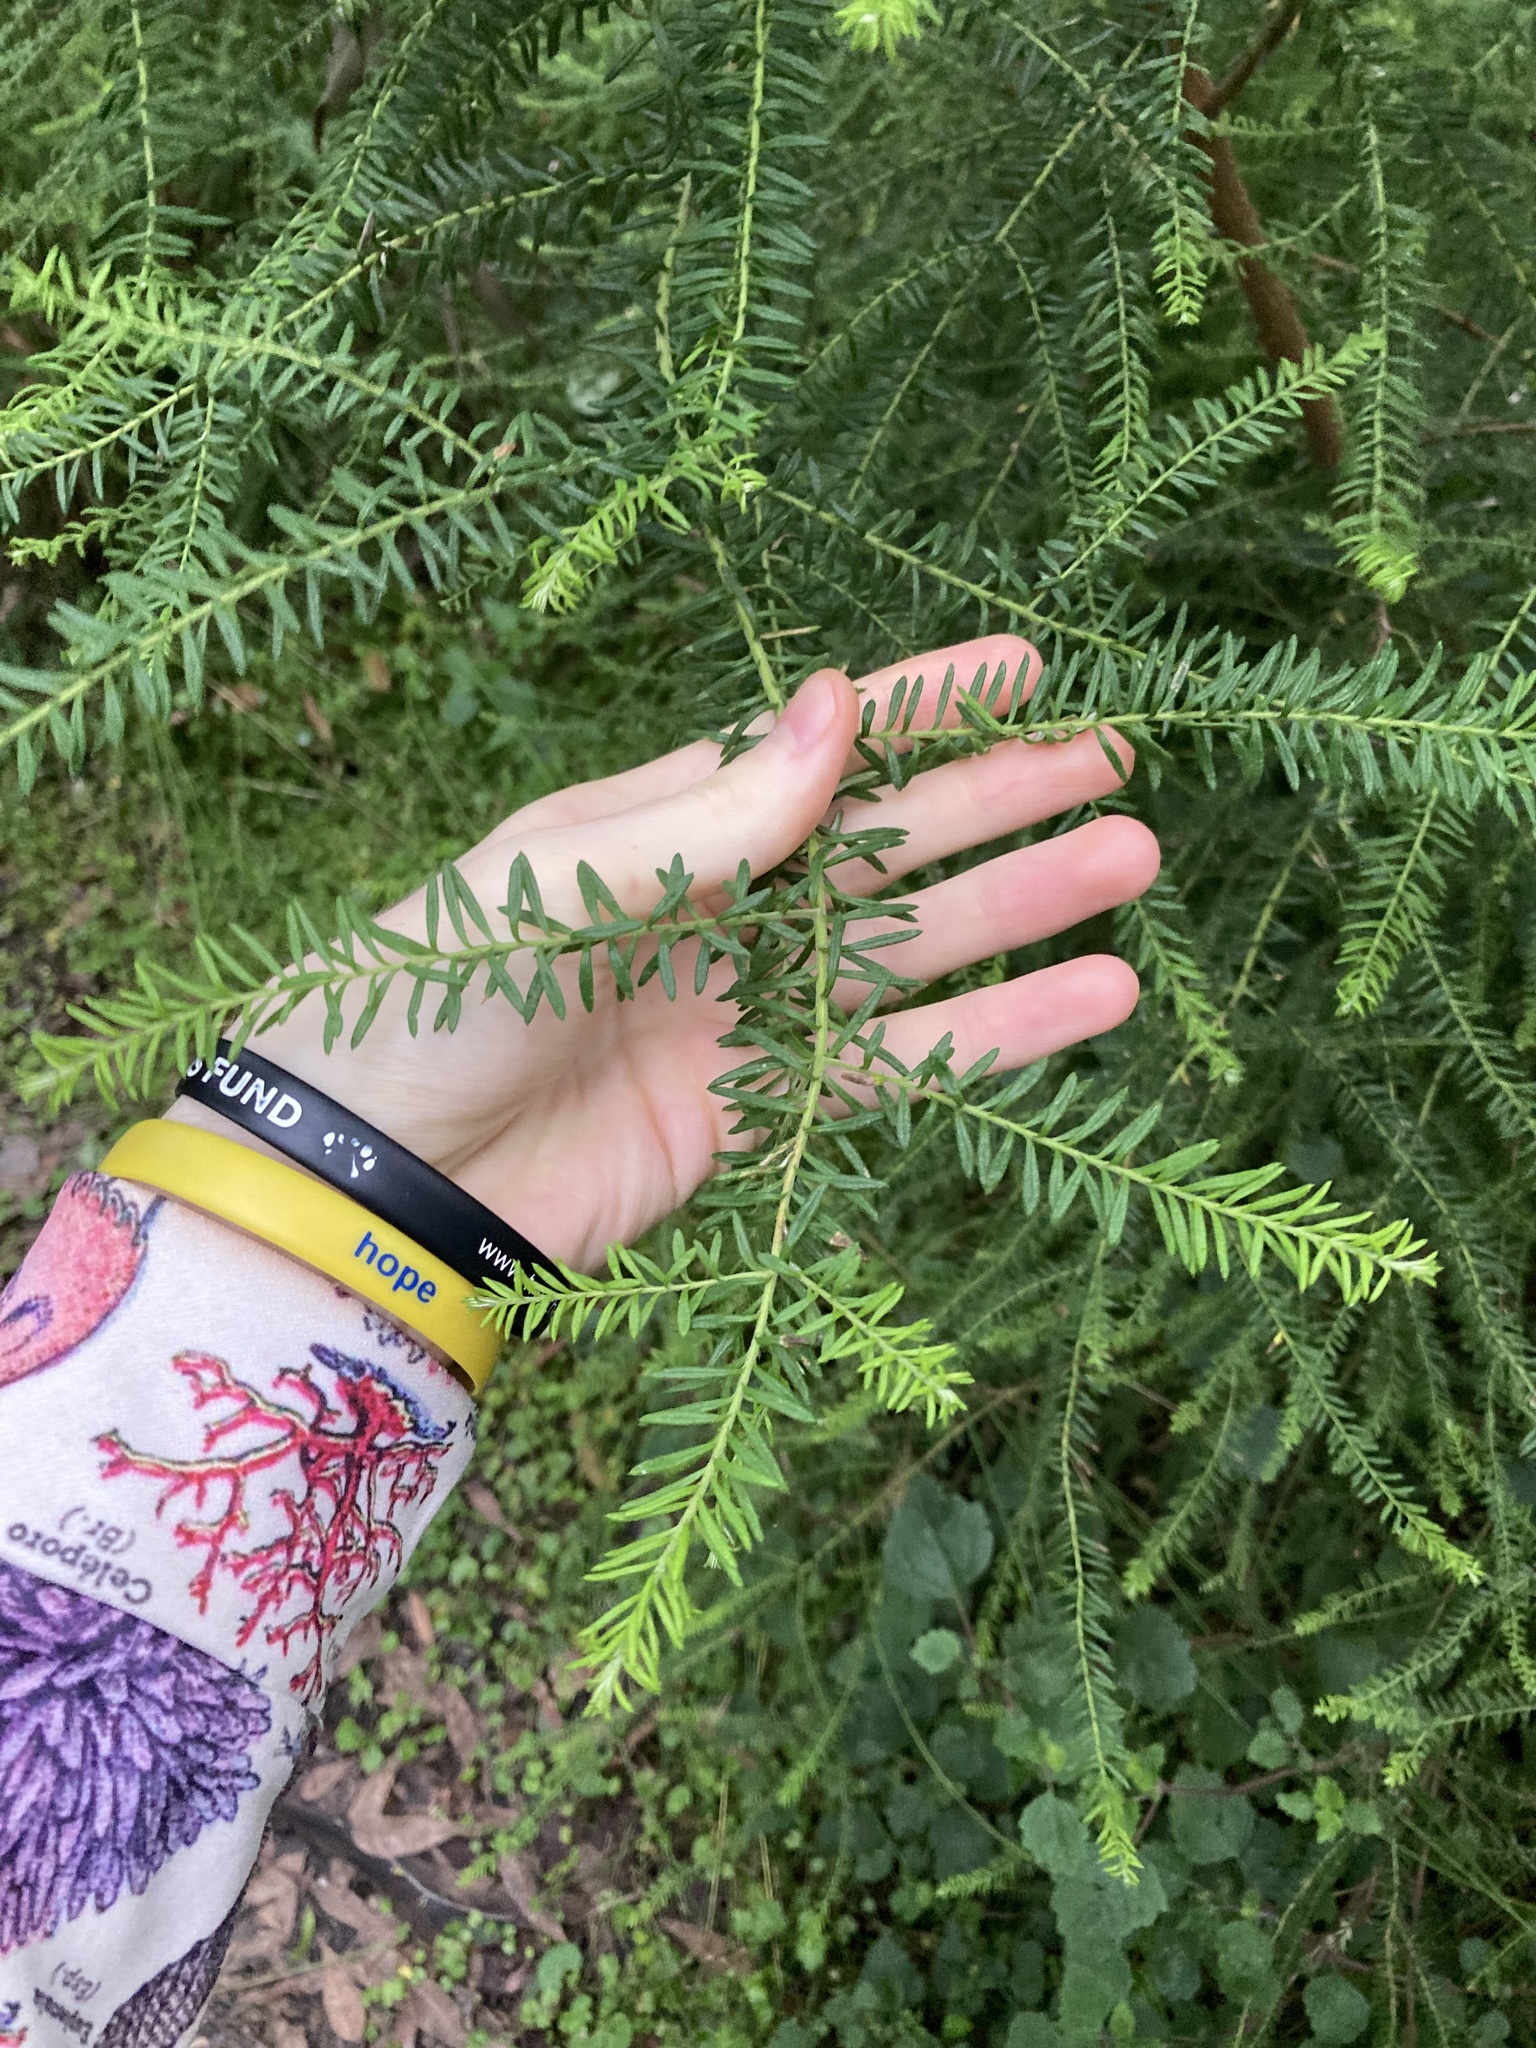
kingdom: Plantae
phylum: Tracheophyta
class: Magnoliopsida
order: Asterales
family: Asteraceae
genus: Ozothamnus
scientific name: Ozothamnus diosmifolius
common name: White-dogwood
